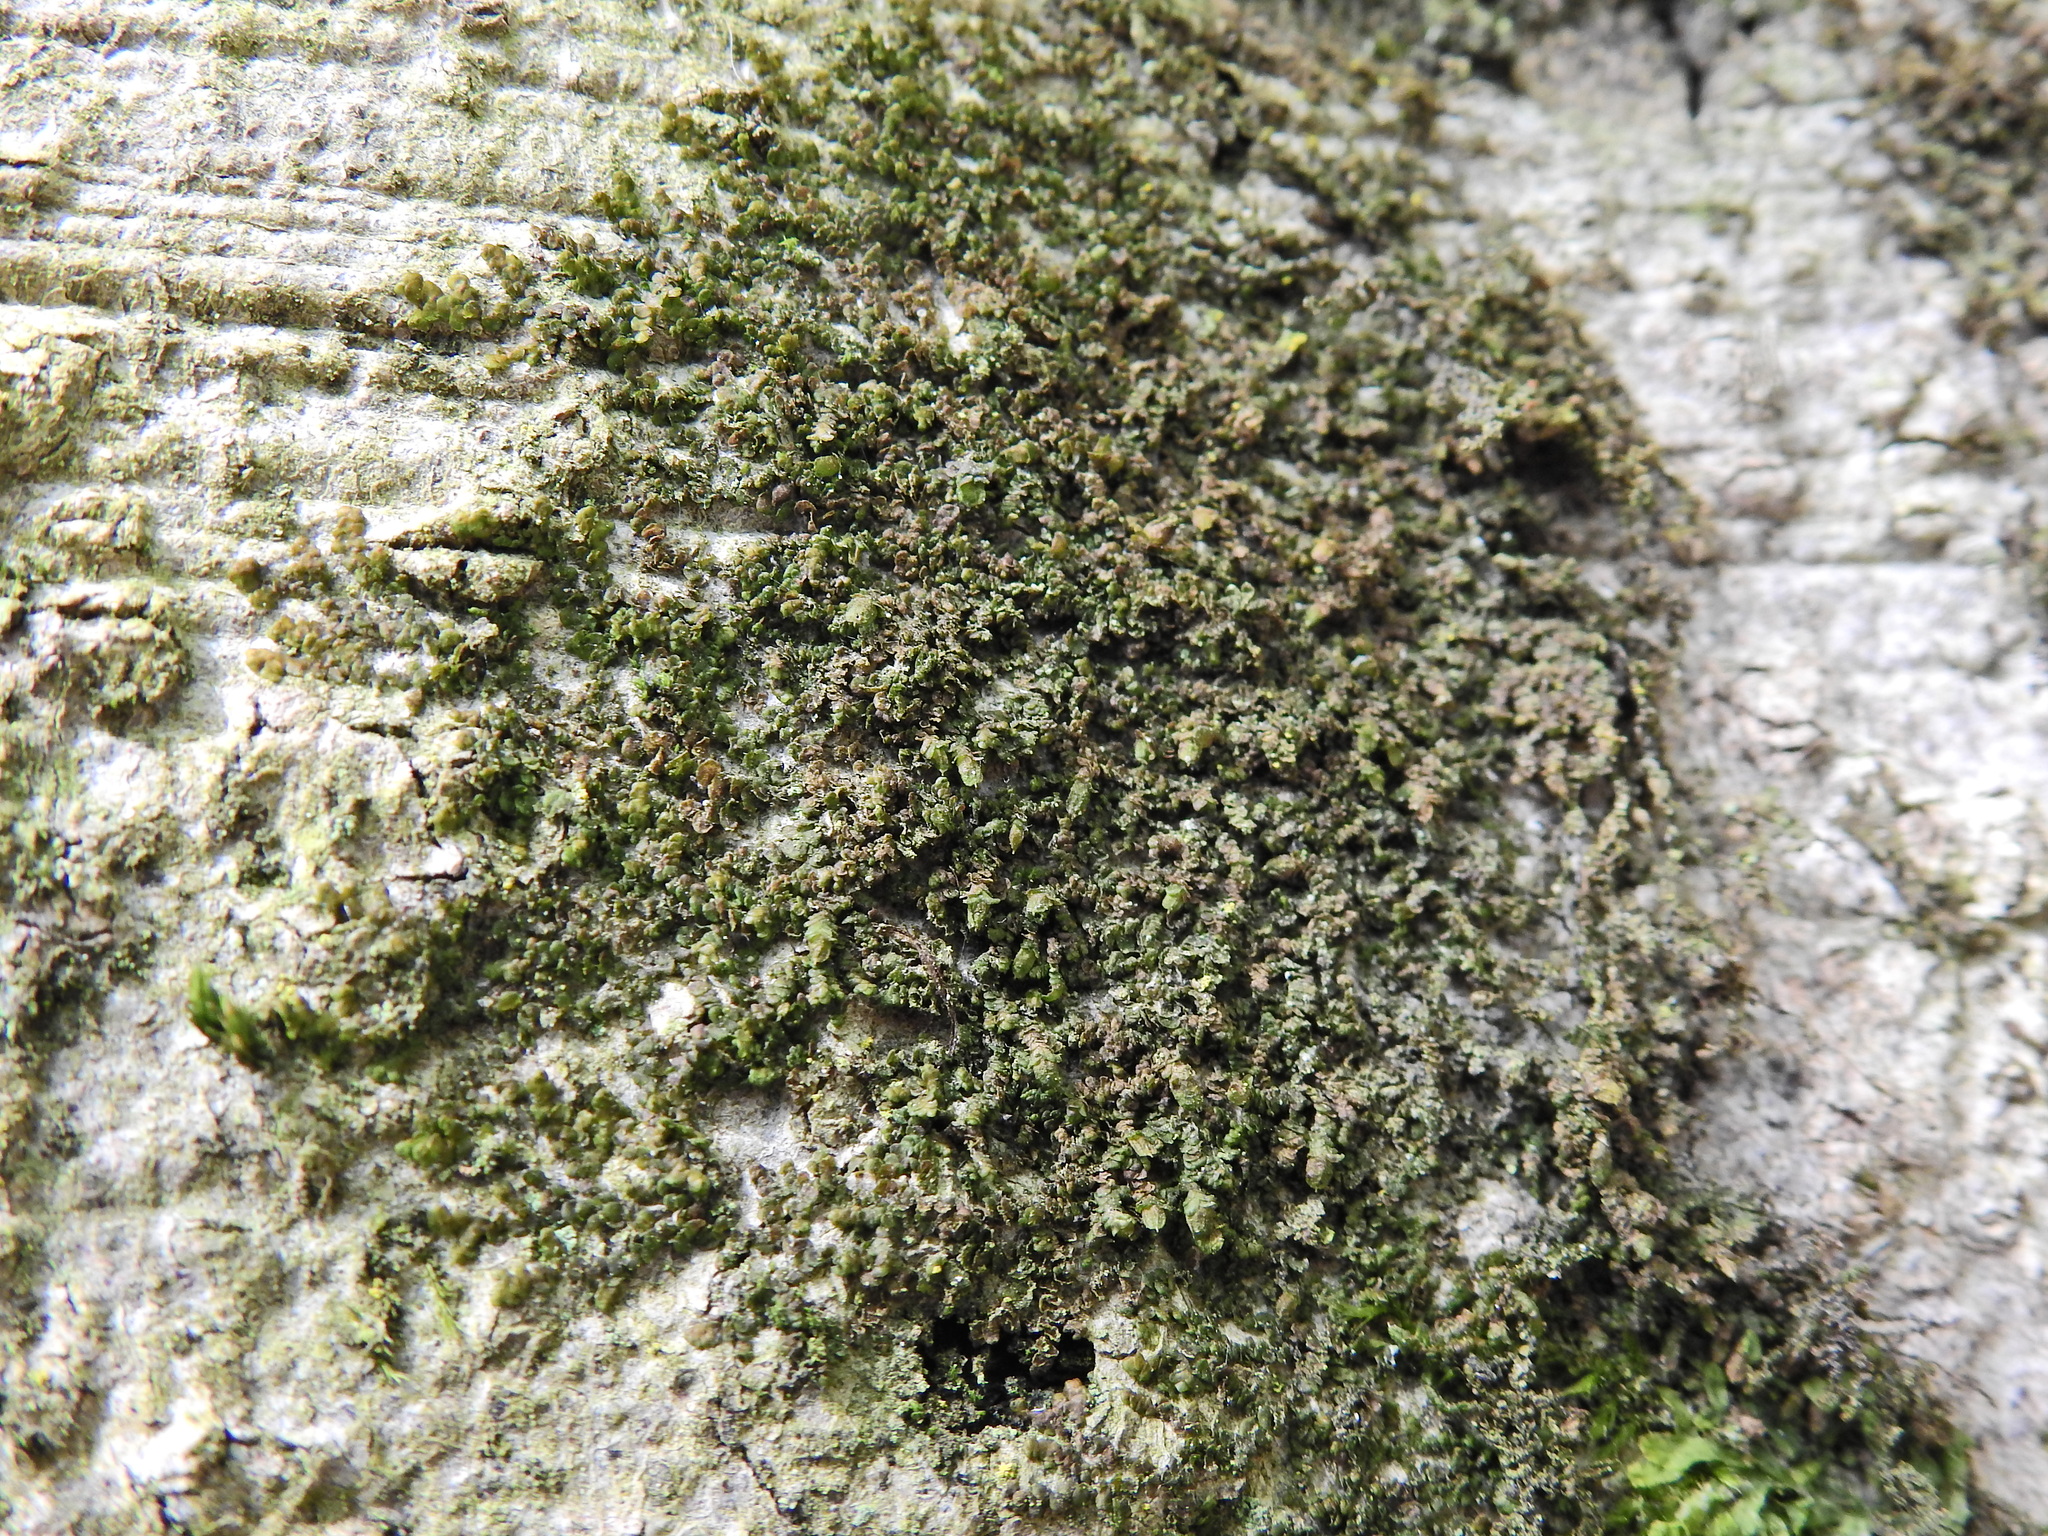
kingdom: Plantae
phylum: Marchantiophyta
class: Jungermanniopsida
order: Porellales
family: Frullaniaceae
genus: Frullania
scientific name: Frullania dilatata
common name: Dilated scalewort
